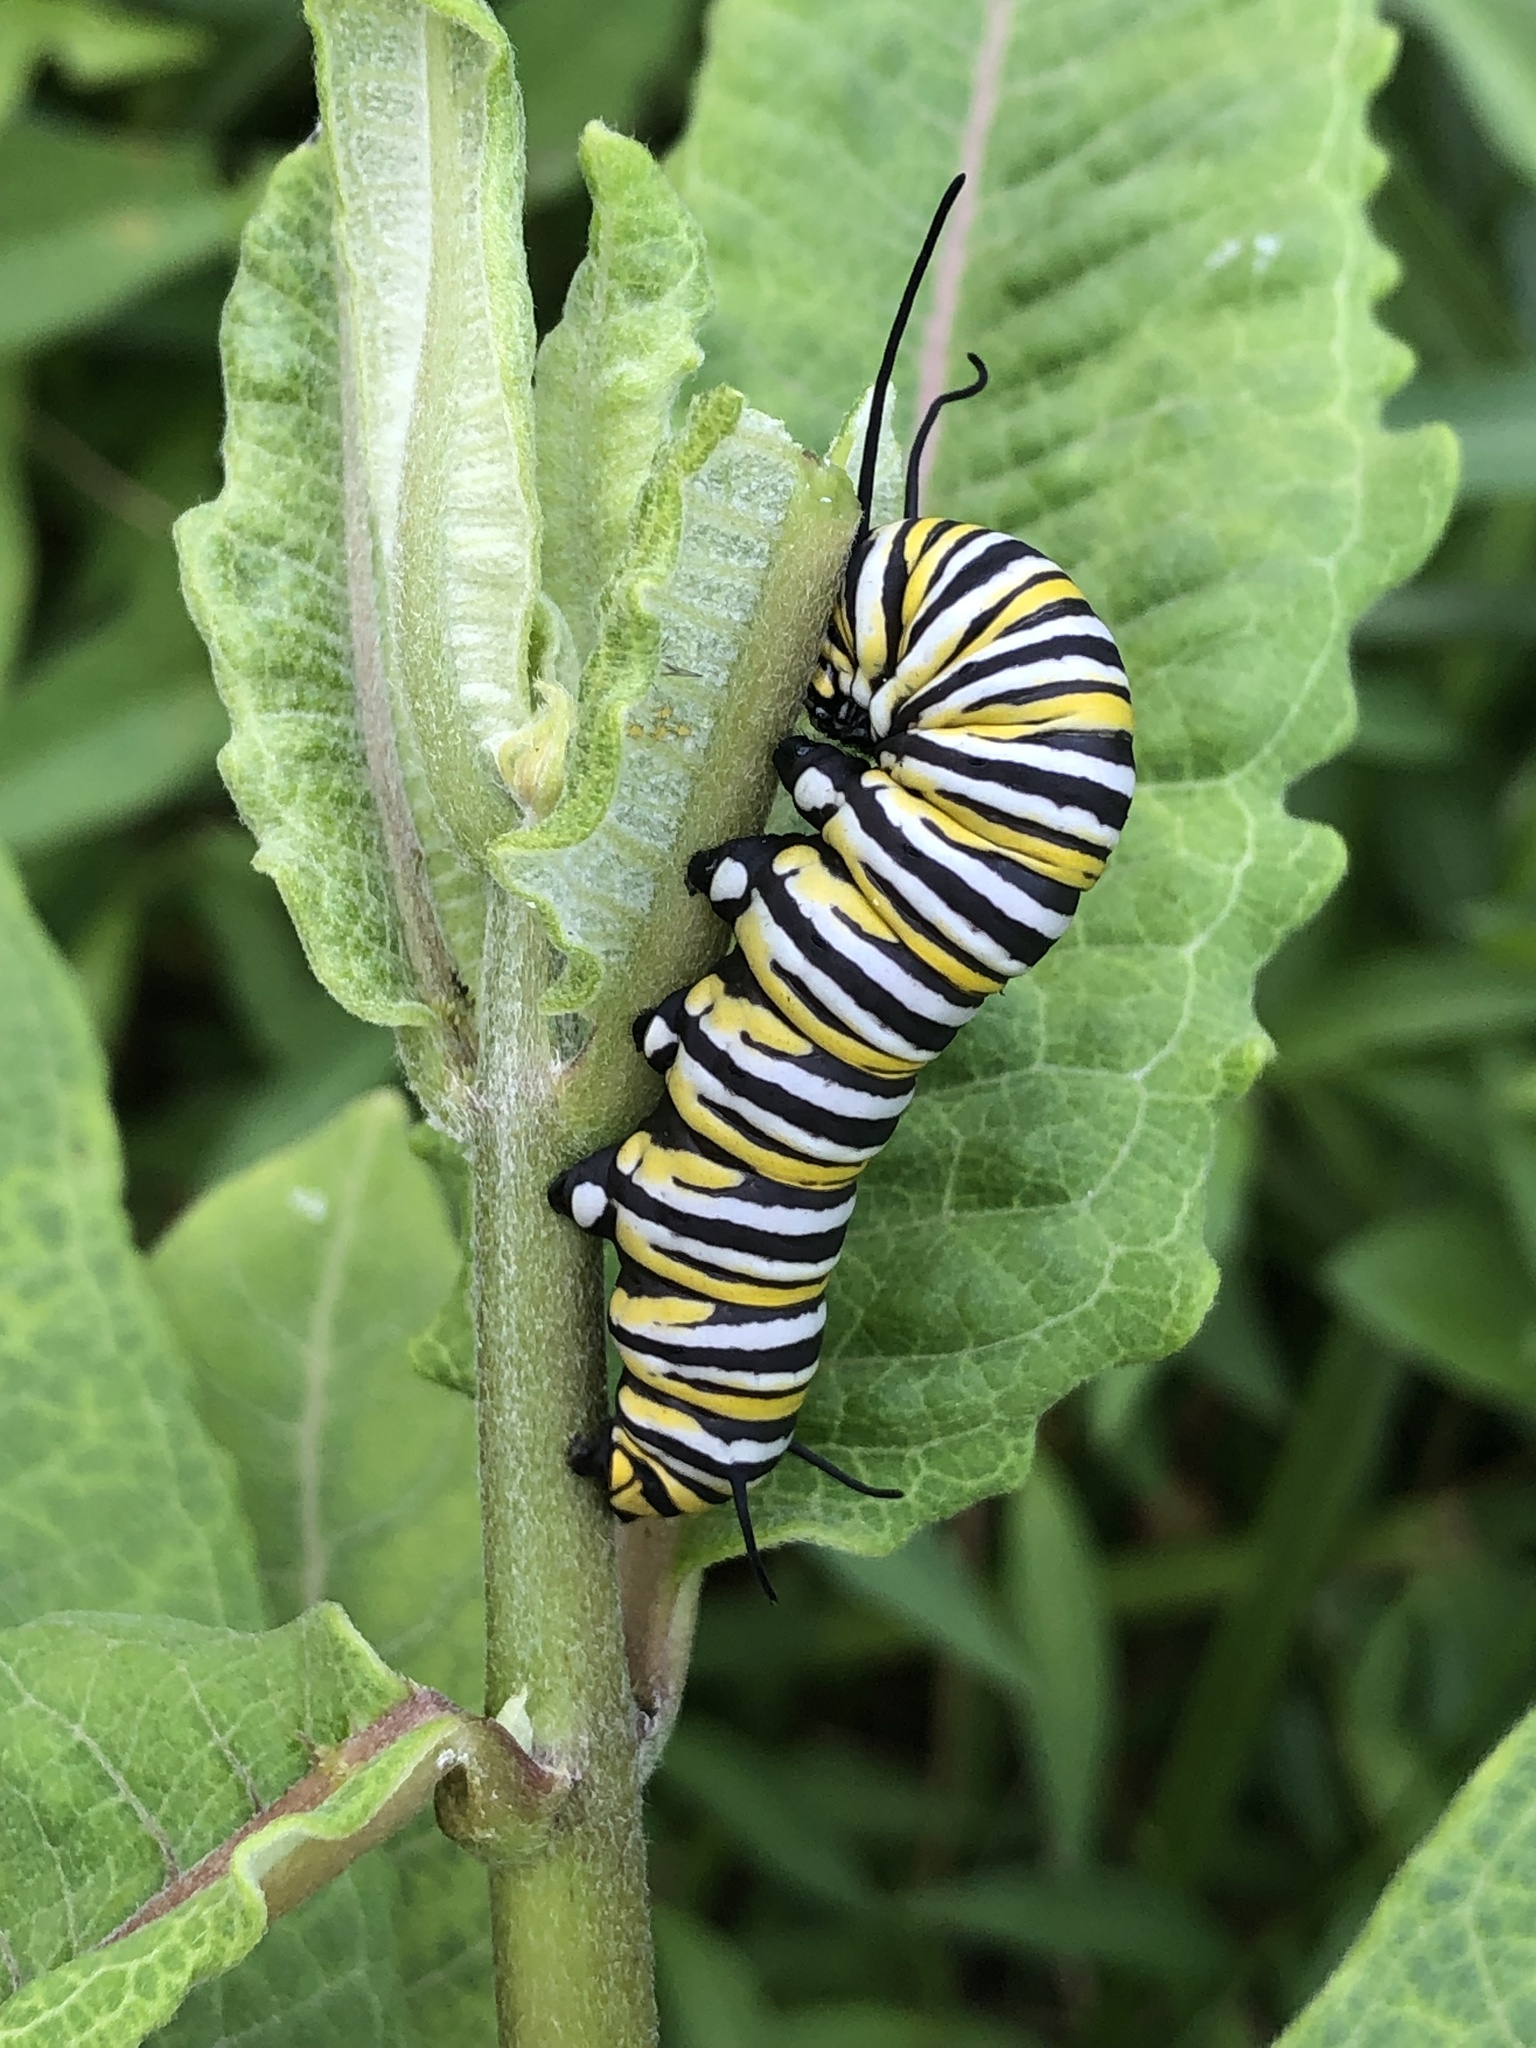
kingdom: Animalia
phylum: Arthropoda
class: Insecta
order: Lepidoptera
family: Nymphalidae
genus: Danaus
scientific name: Danaus plexippus
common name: Monarch
